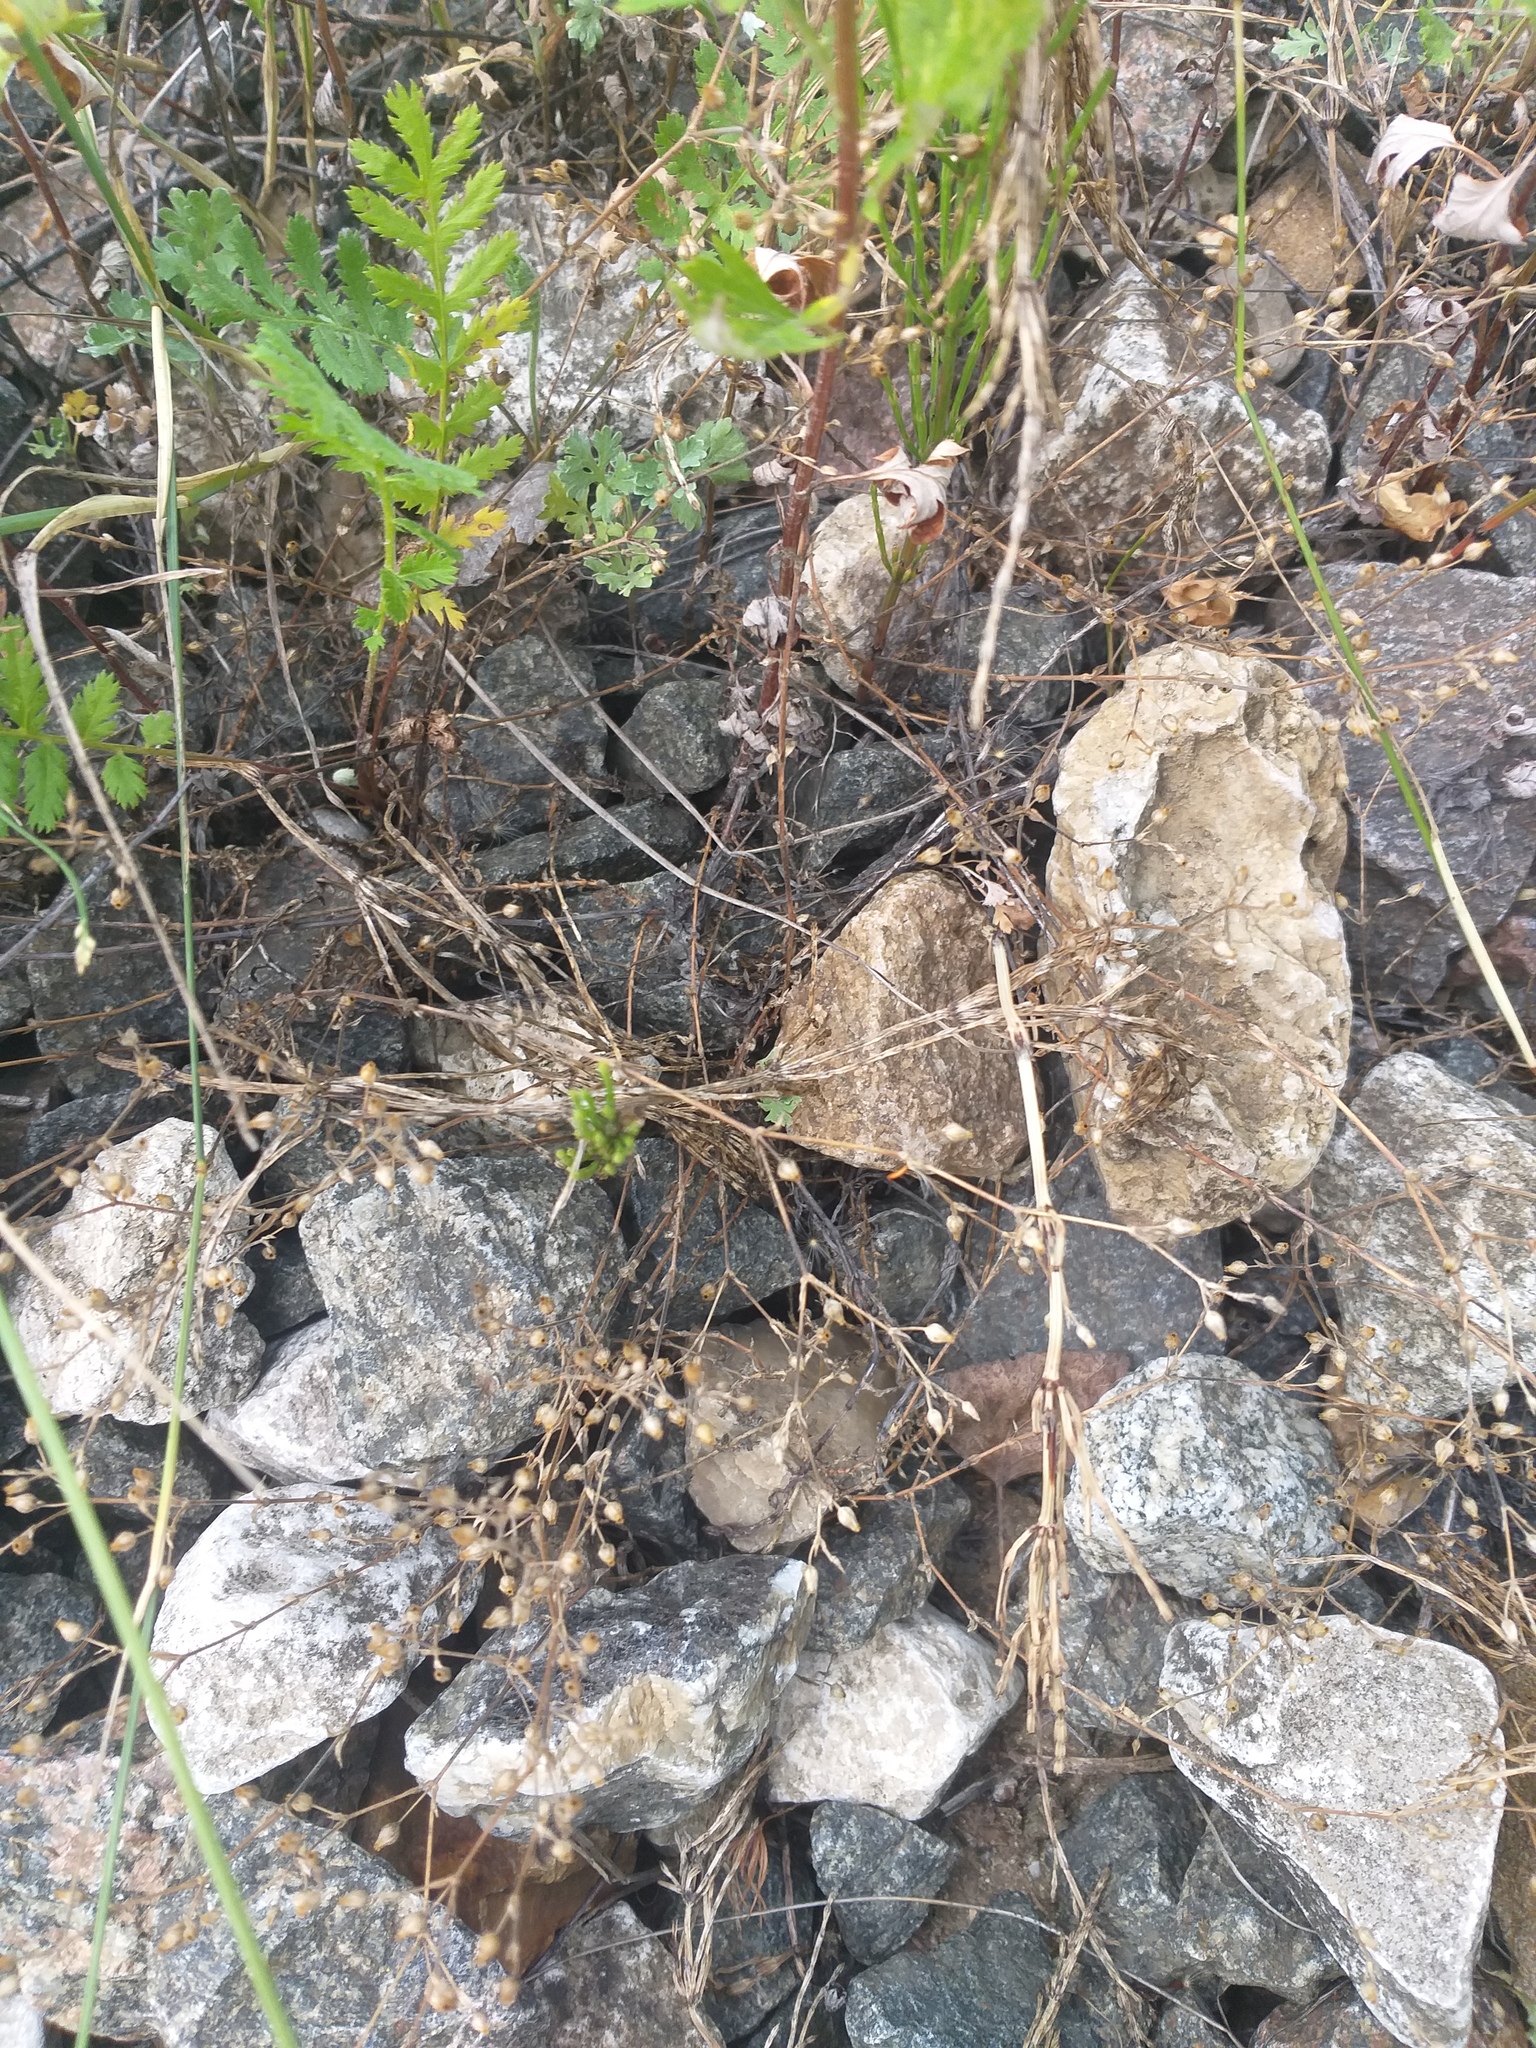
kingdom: Plantae
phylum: Tracheophyta
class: Magnoliopsida
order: Caryophyllales
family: Caryophyllaceae
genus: Arenaria
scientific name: Arenaria serpyllifolia
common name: Thyme-leaved sandwort
